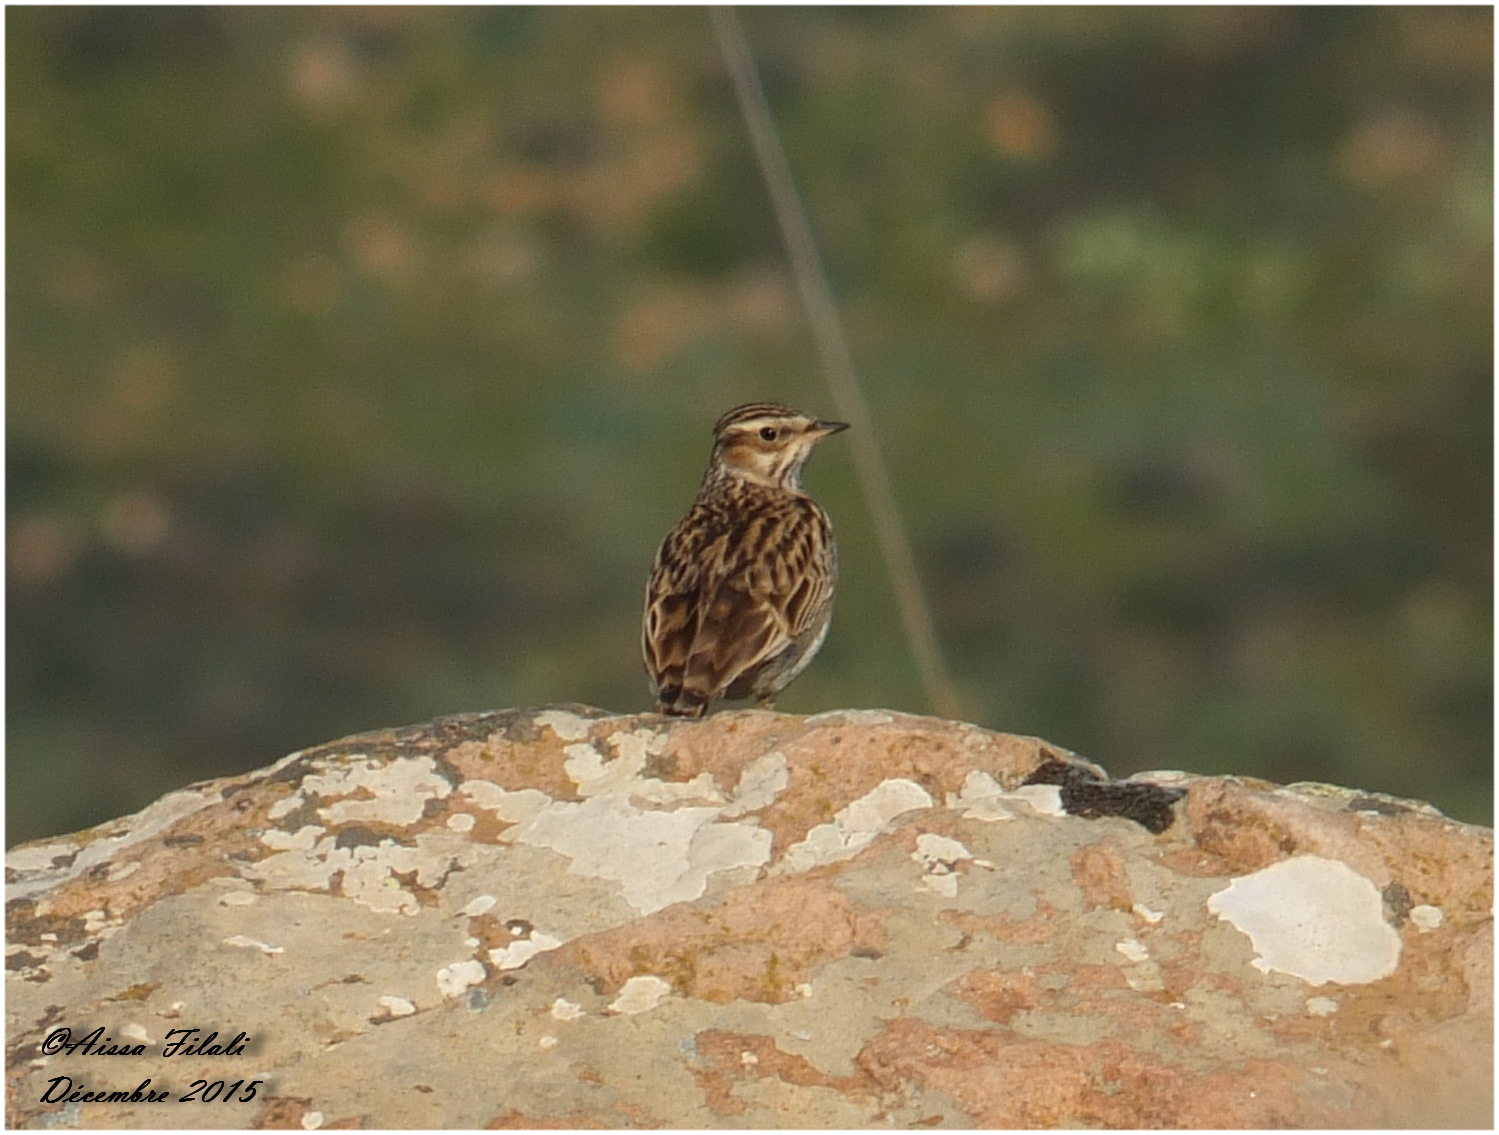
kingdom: Animalia
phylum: Chordata
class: Aves
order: Passeriformes
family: Alaudidae
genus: Lullula
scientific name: Lullula arborea
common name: Woodlark
